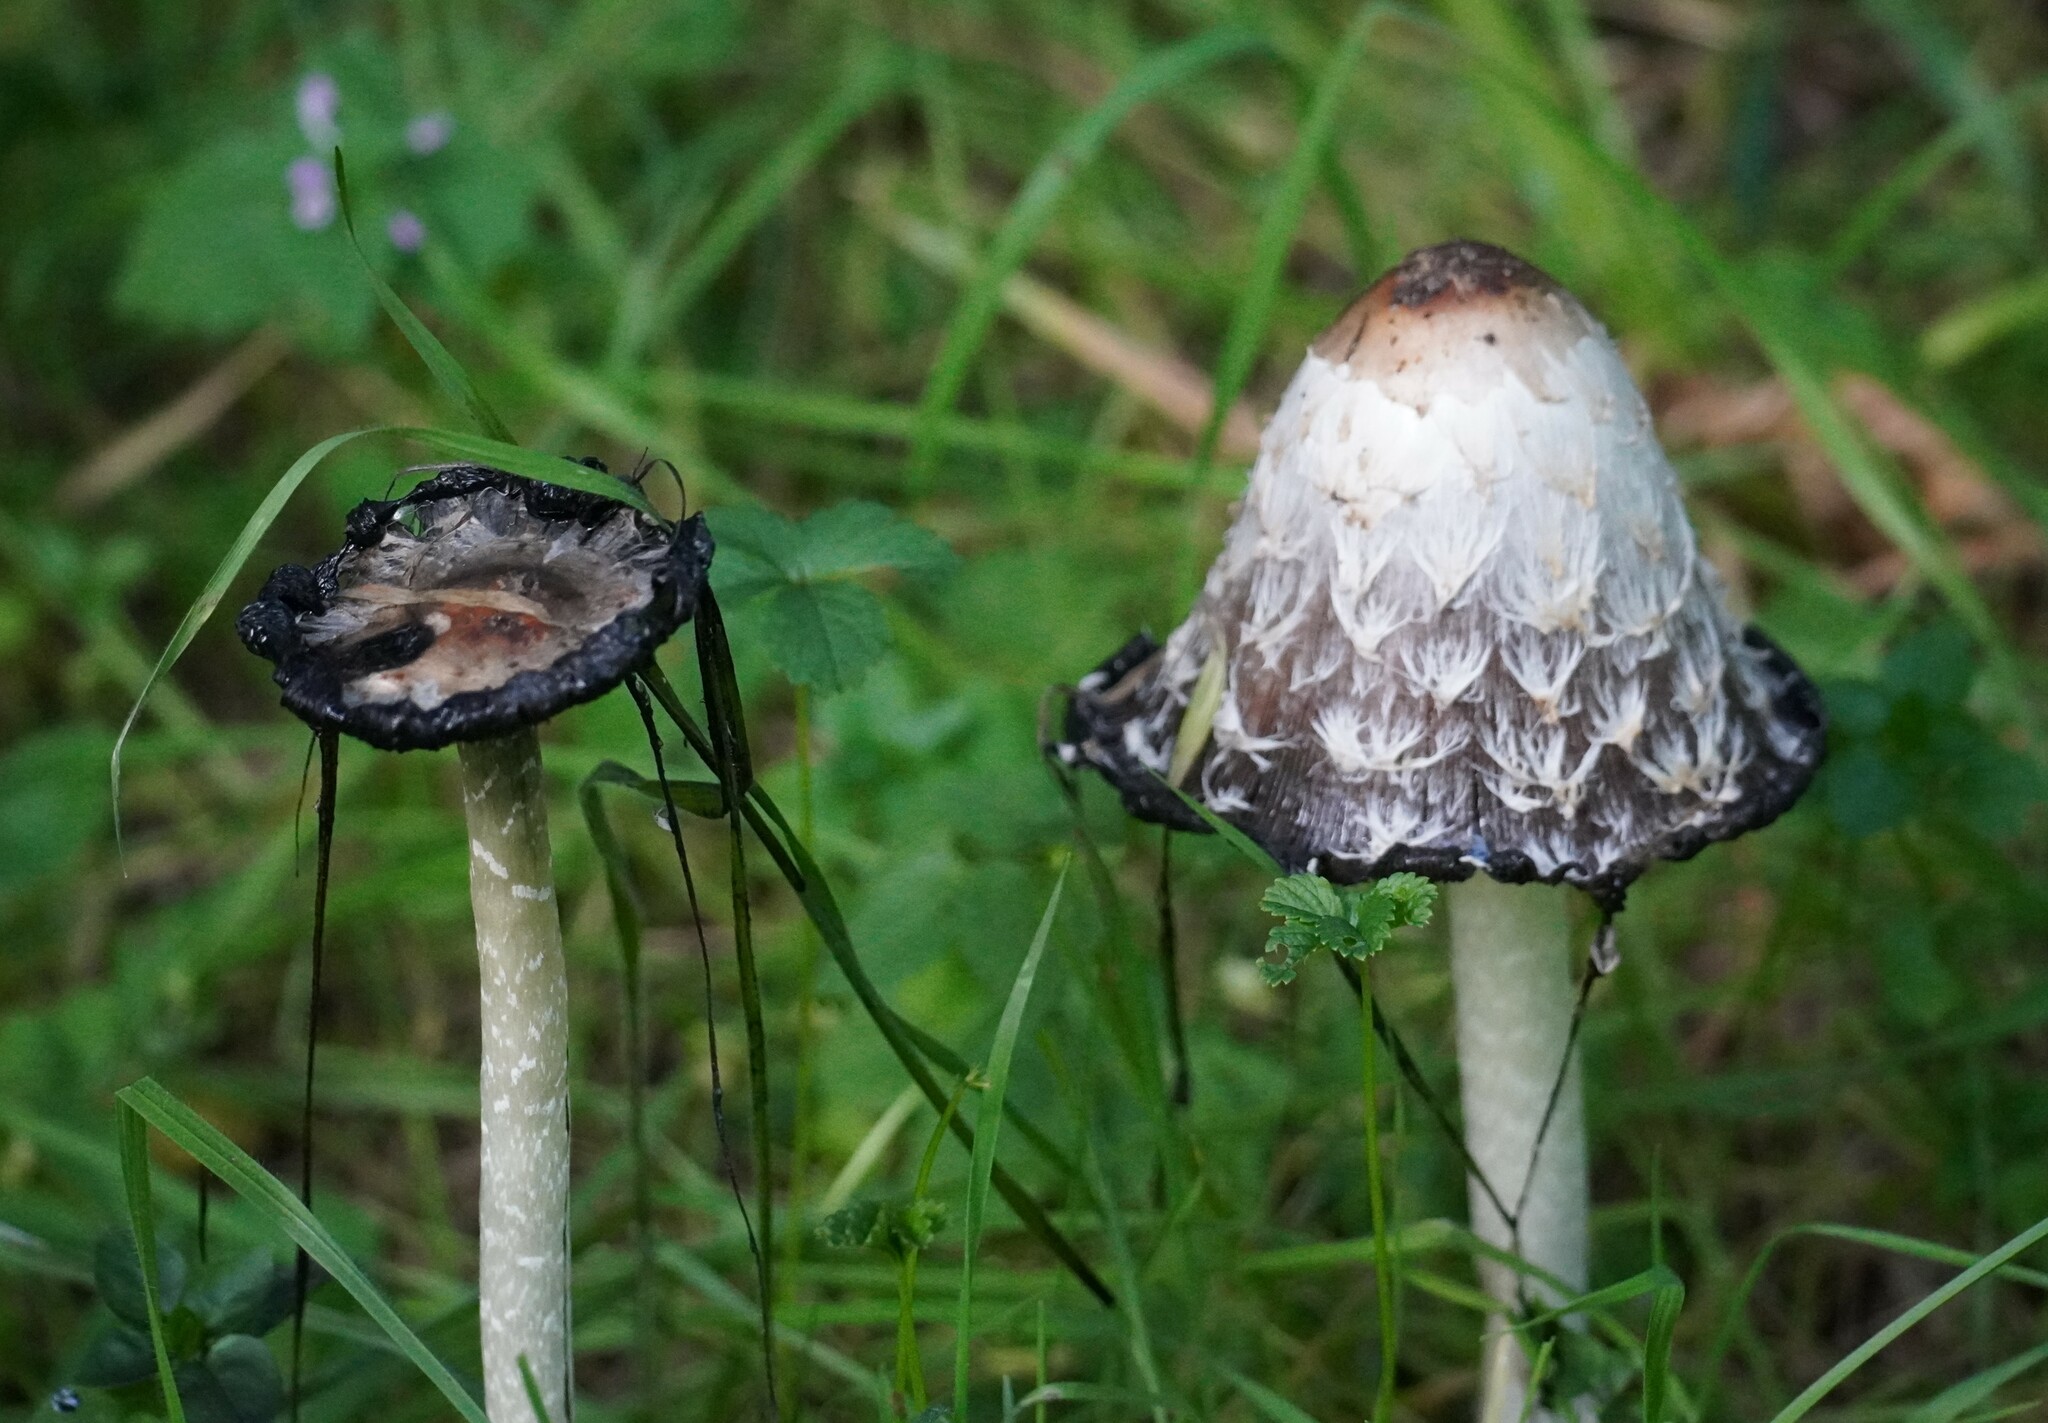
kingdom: Fungi
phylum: Basidiomycota
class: Agaricomycetes
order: Agaricales
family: Agaricaceae
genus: Coprinus
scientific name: Coprinus comatus
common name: Lawyer's wig
